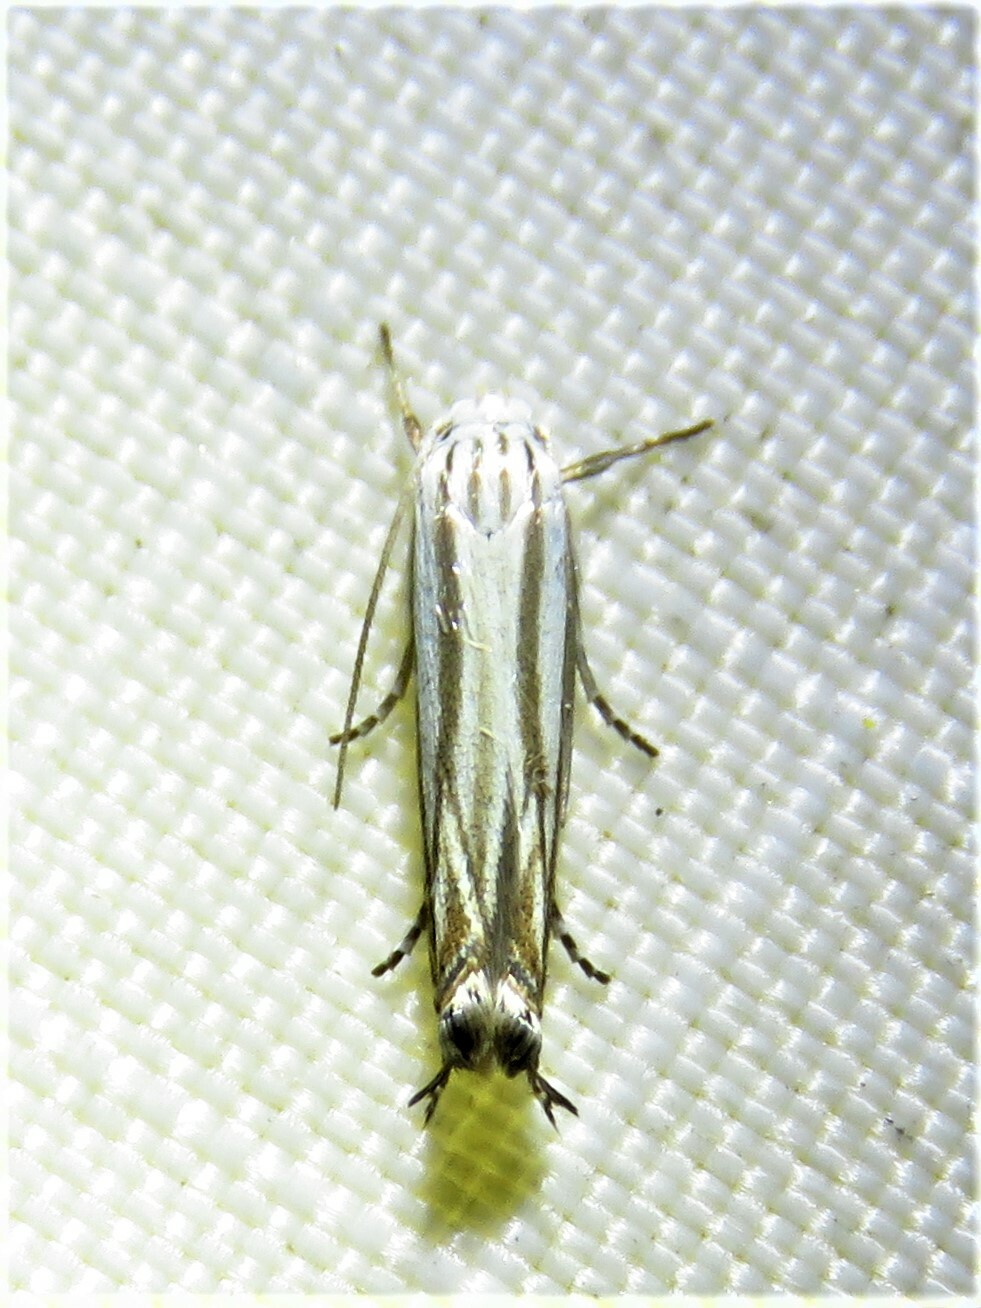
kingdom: Animalia
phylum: Arthropoda
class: Insecta
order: Lepidoptera
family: Gelechiidae
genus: Polyhymno
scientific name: Polyhymno luteostrigella
